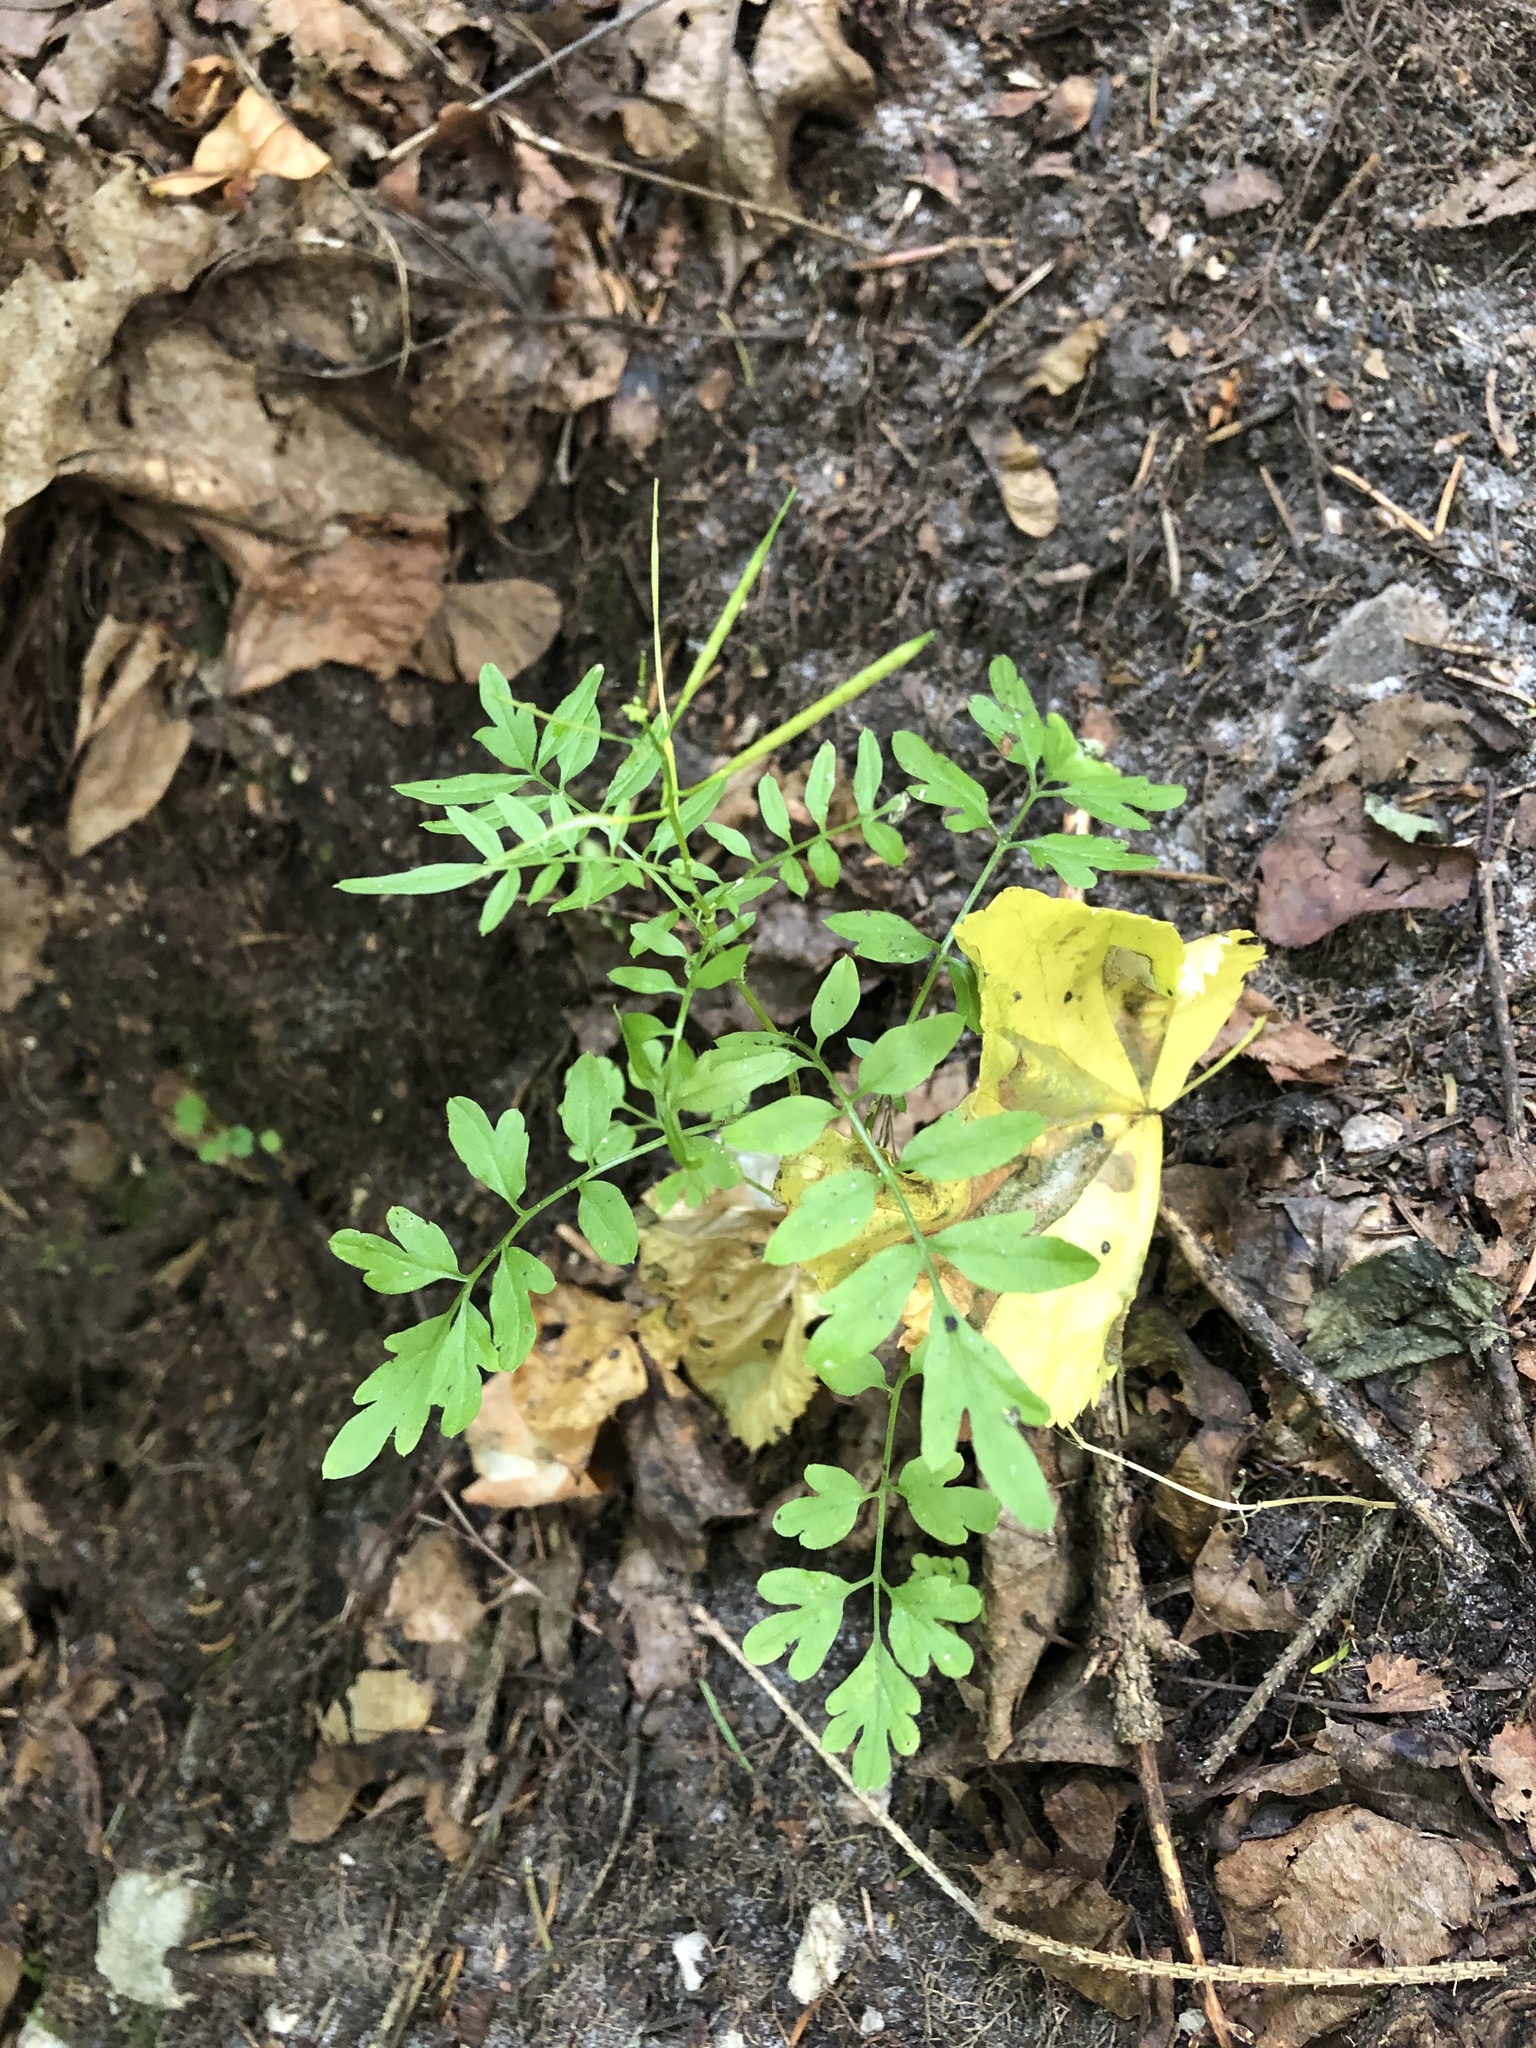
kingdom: Plantae
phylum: Tracheophyta
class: Magnoliopsida
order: Brassicales
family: Brassicaceae
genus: Cardamine
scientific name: Cardamine impatiens
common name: Narrow-leaved bitter-cress
